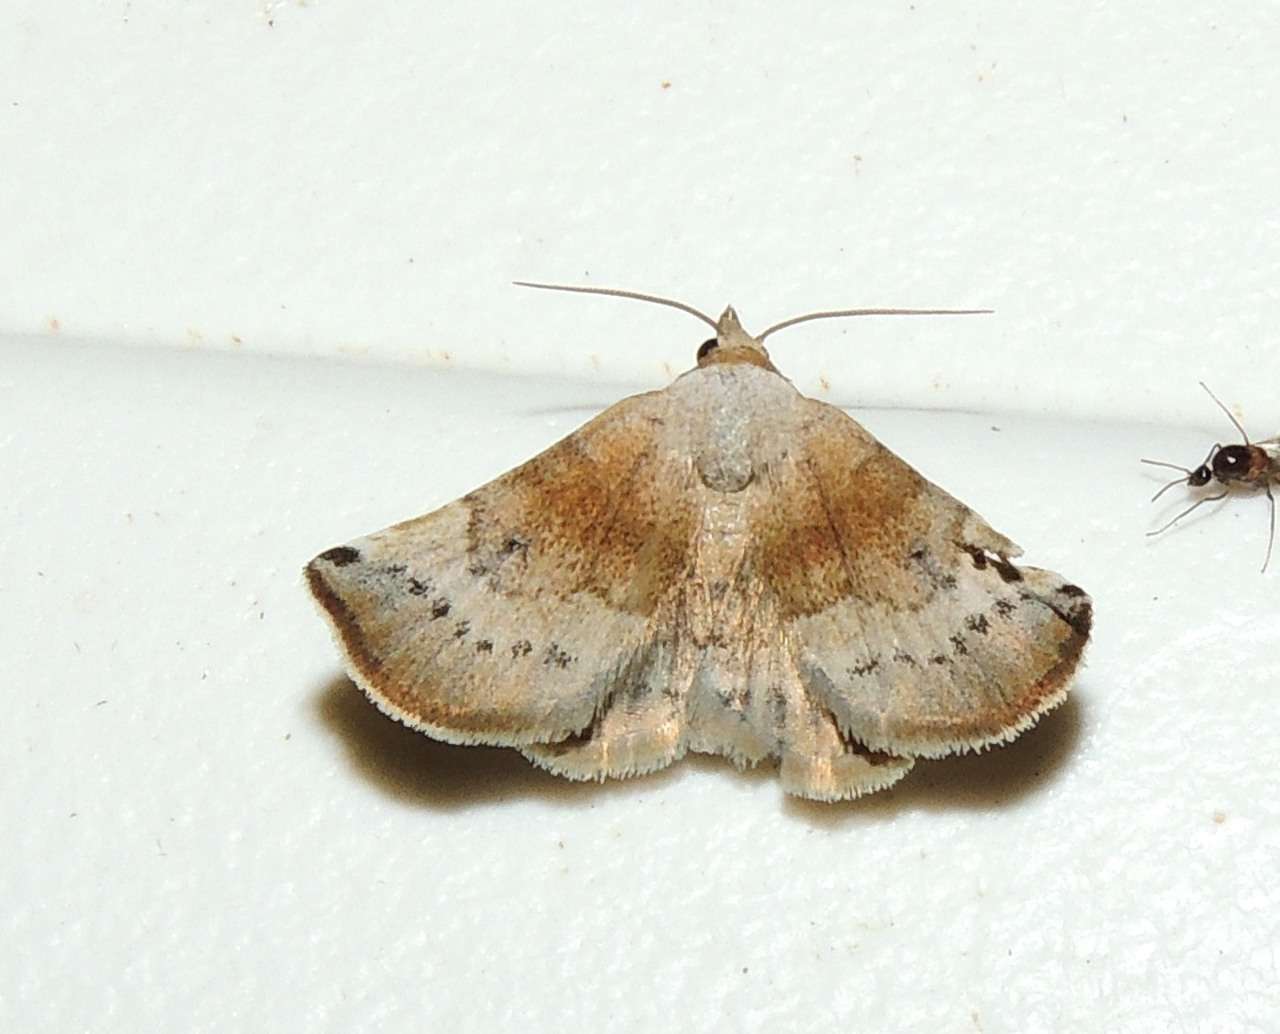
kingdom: Animalia
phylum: Arthropoda
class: Insecta
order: Lepidoptera
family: Noctuidae
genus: Mataeomera
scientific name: Mataeomera mesotaenia
